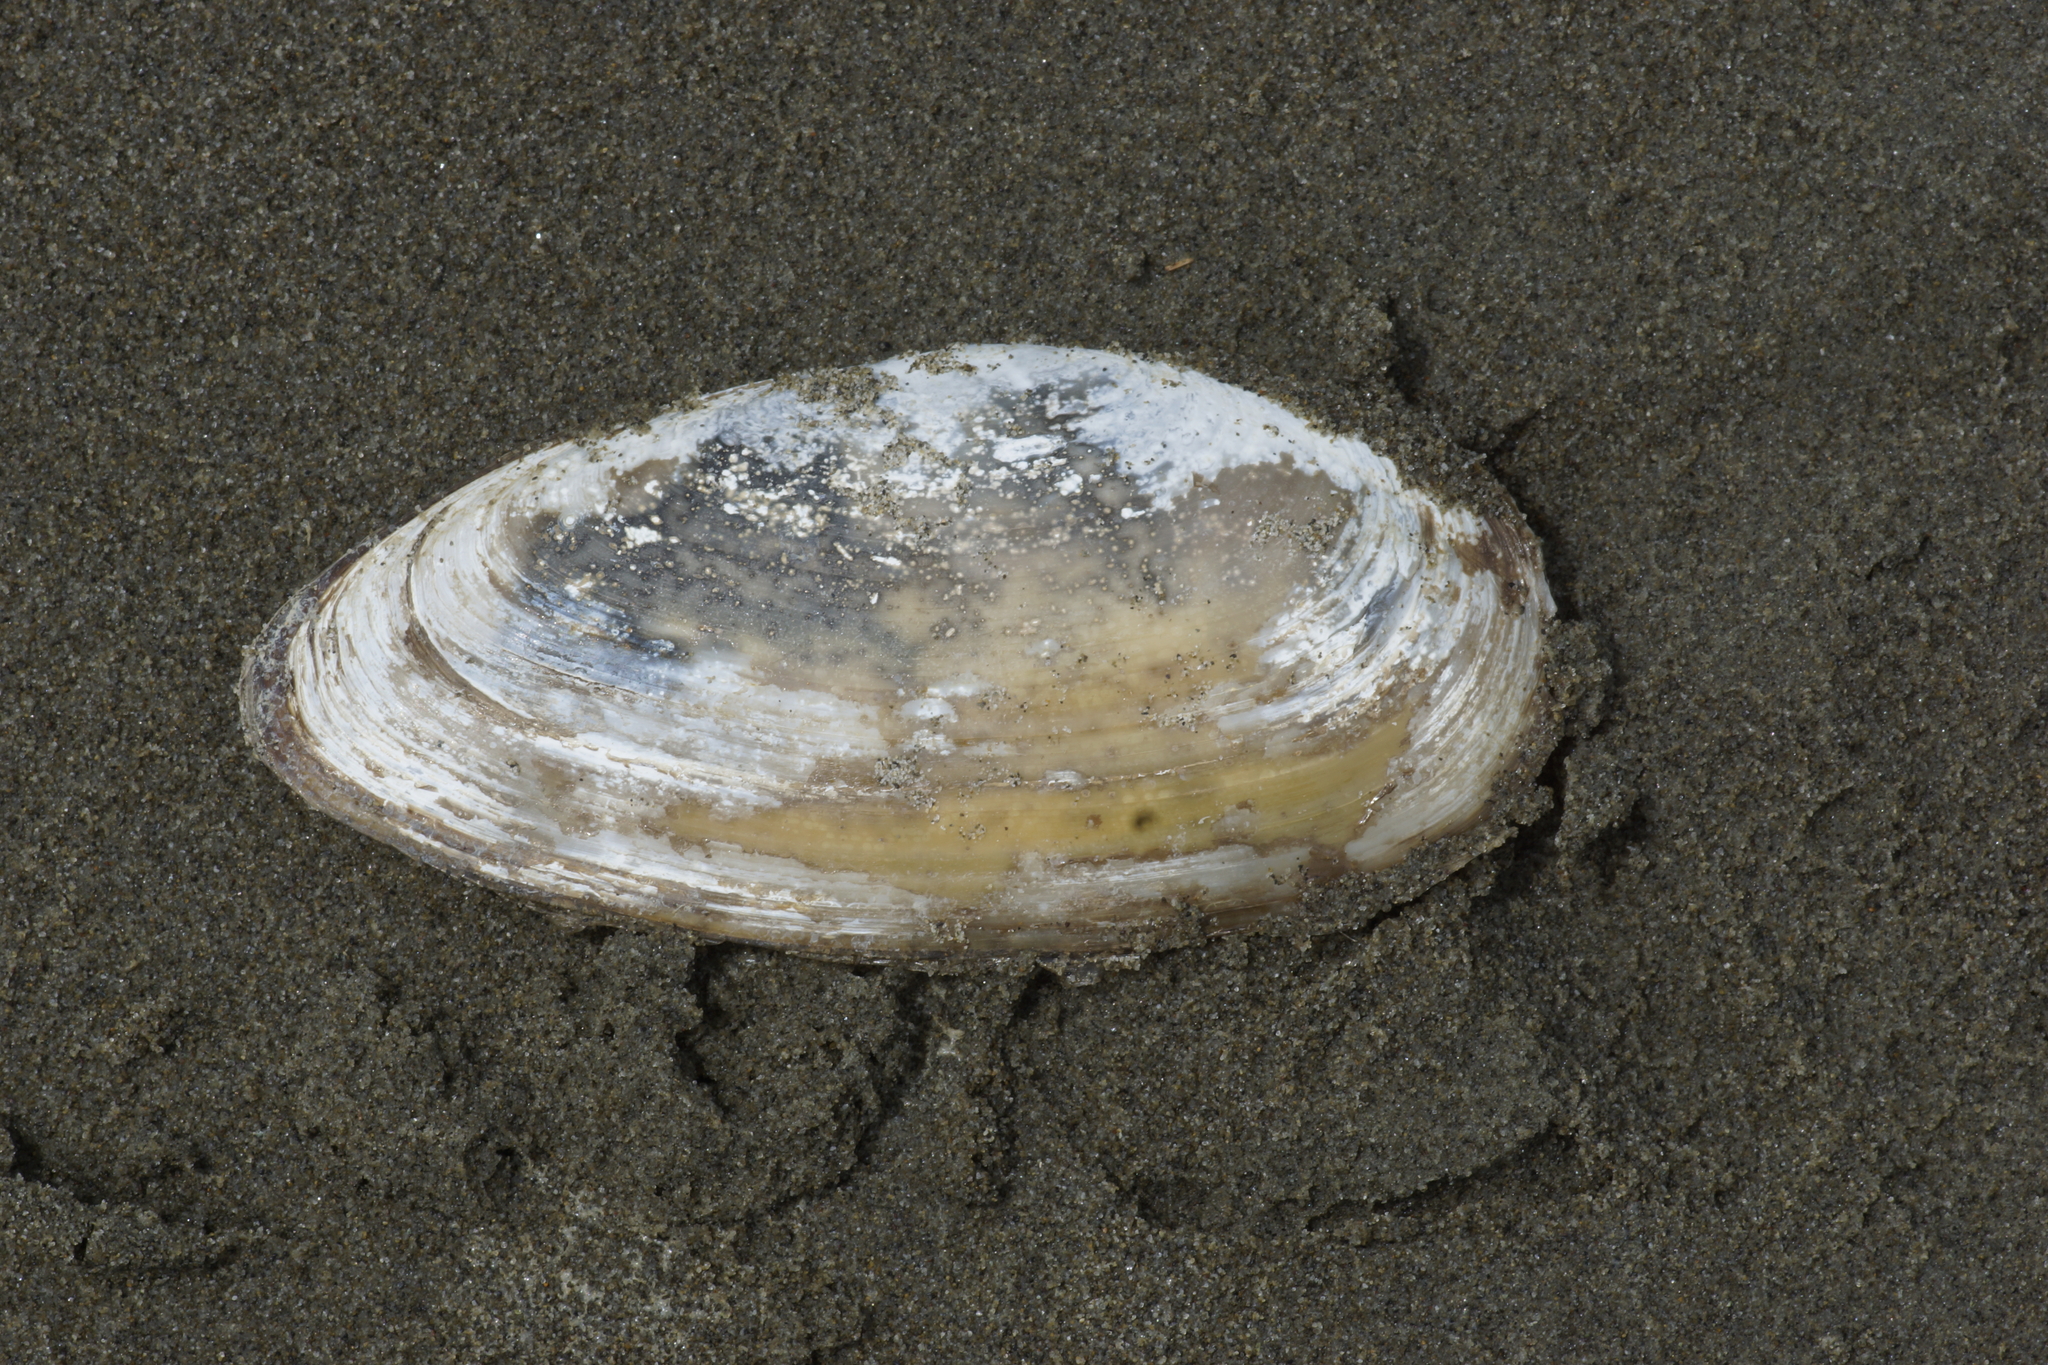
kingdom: Animalia
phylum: Mollusca
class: Bivalvia
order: Venerida
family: Mactridae
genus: Resania
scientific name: Resania lanceolata
